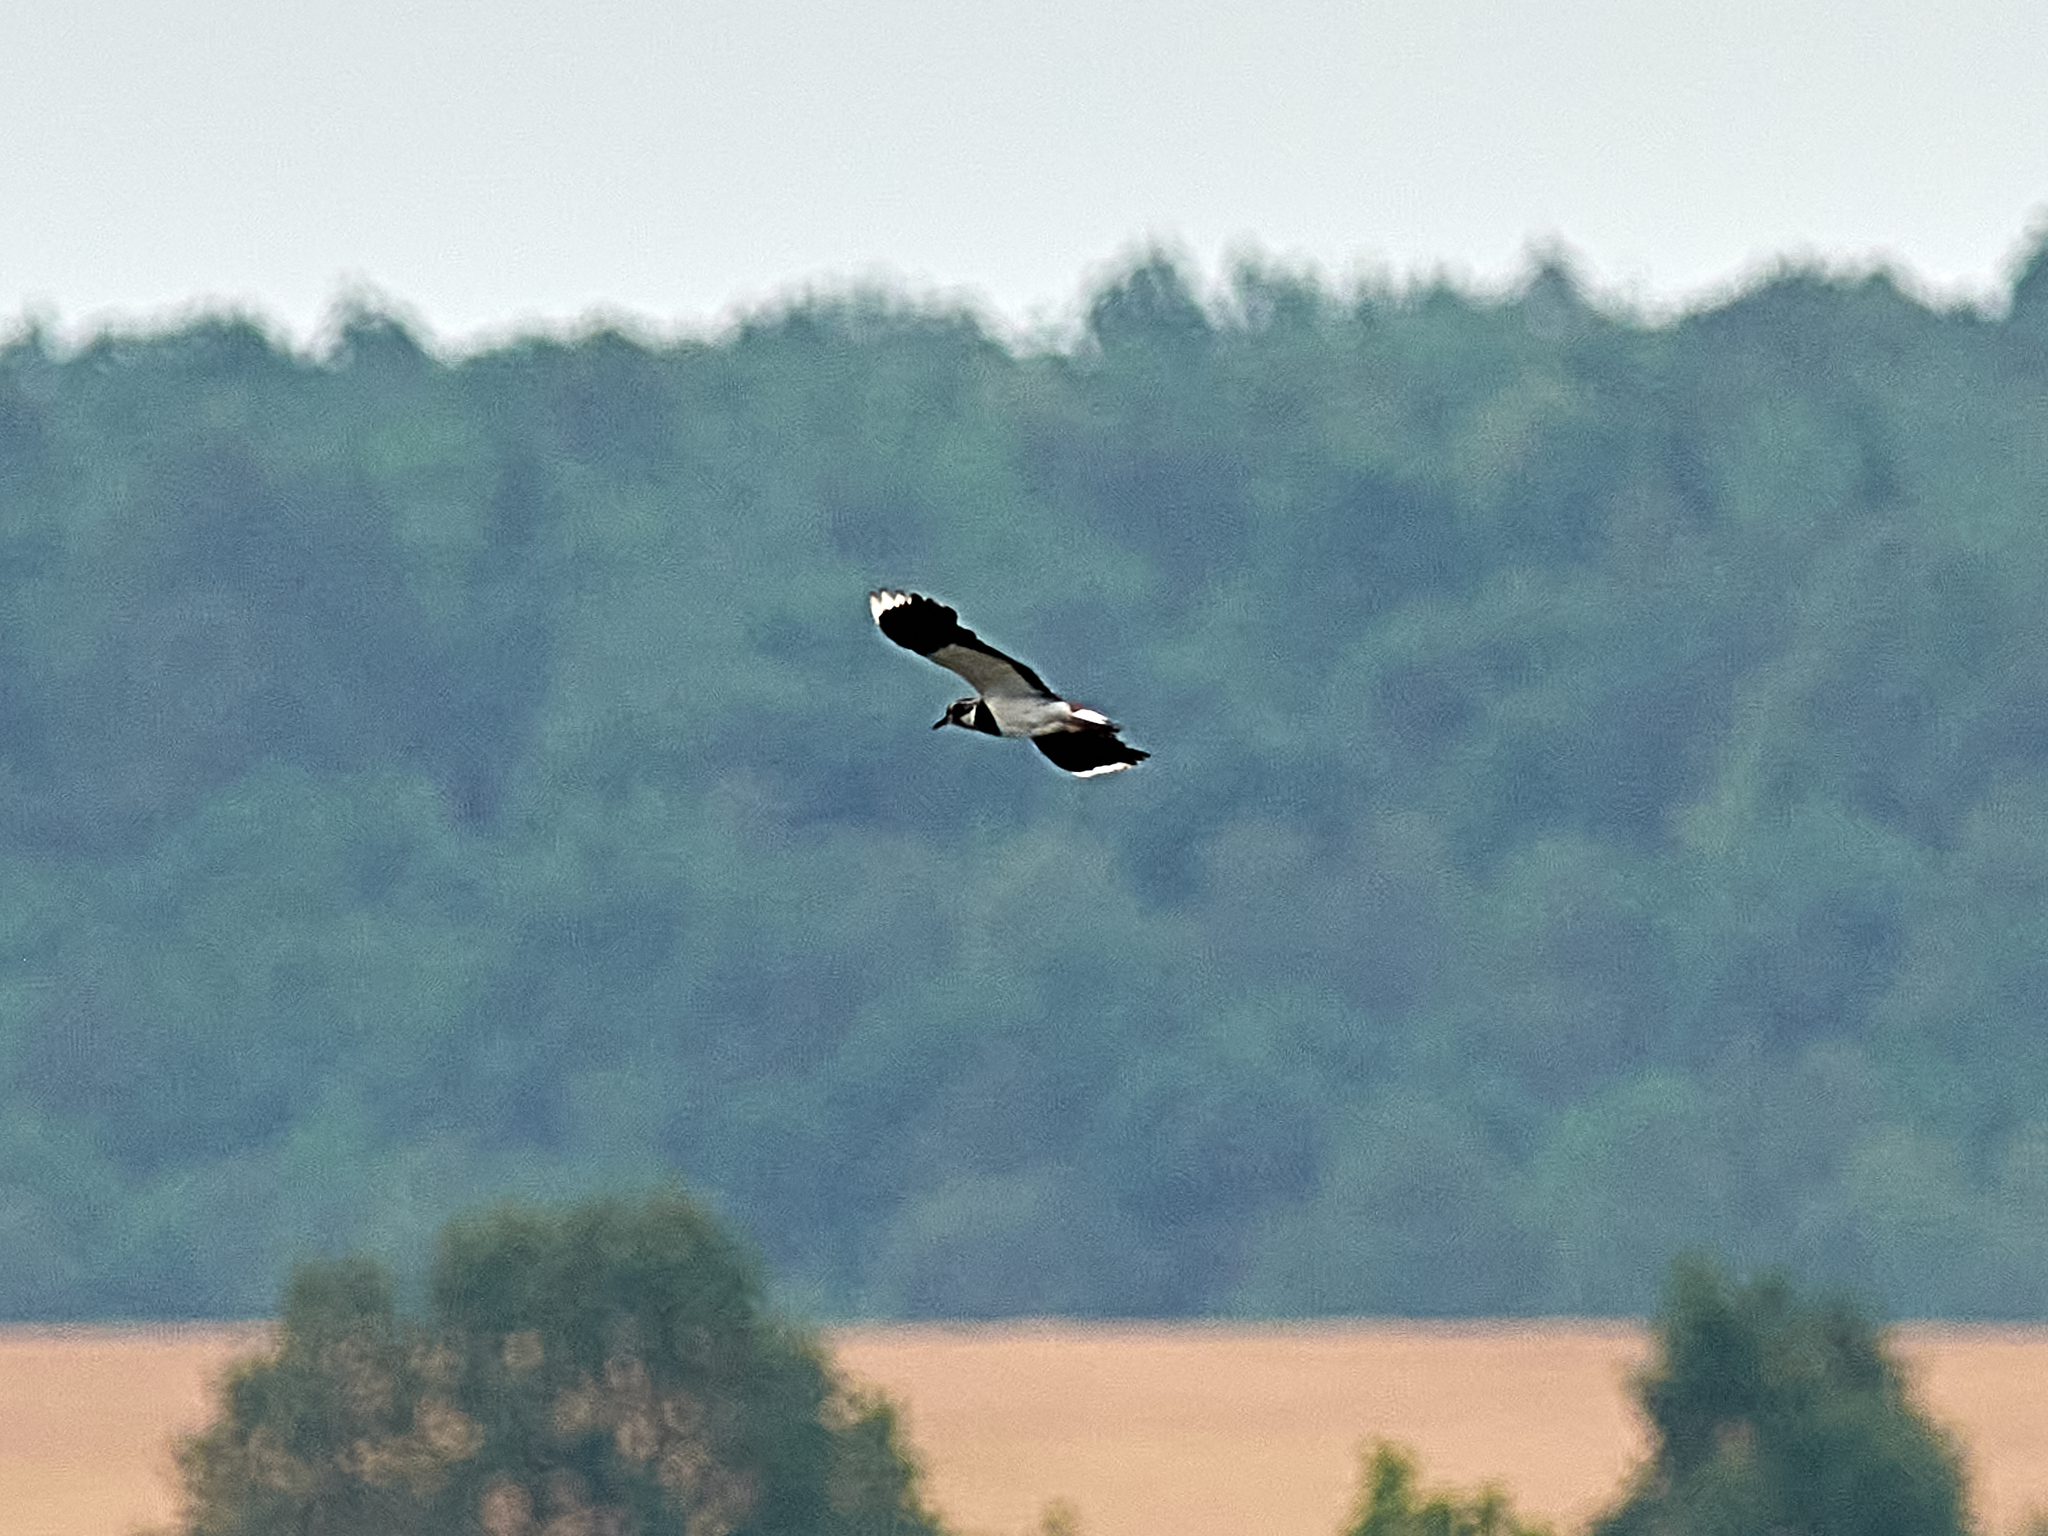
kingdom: Animalia
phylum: Chordata
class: Aves
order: Charadriiformes
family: Charadriidae
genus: Vanellus
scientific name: Vanellus vanellus
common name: Northern lapwing
